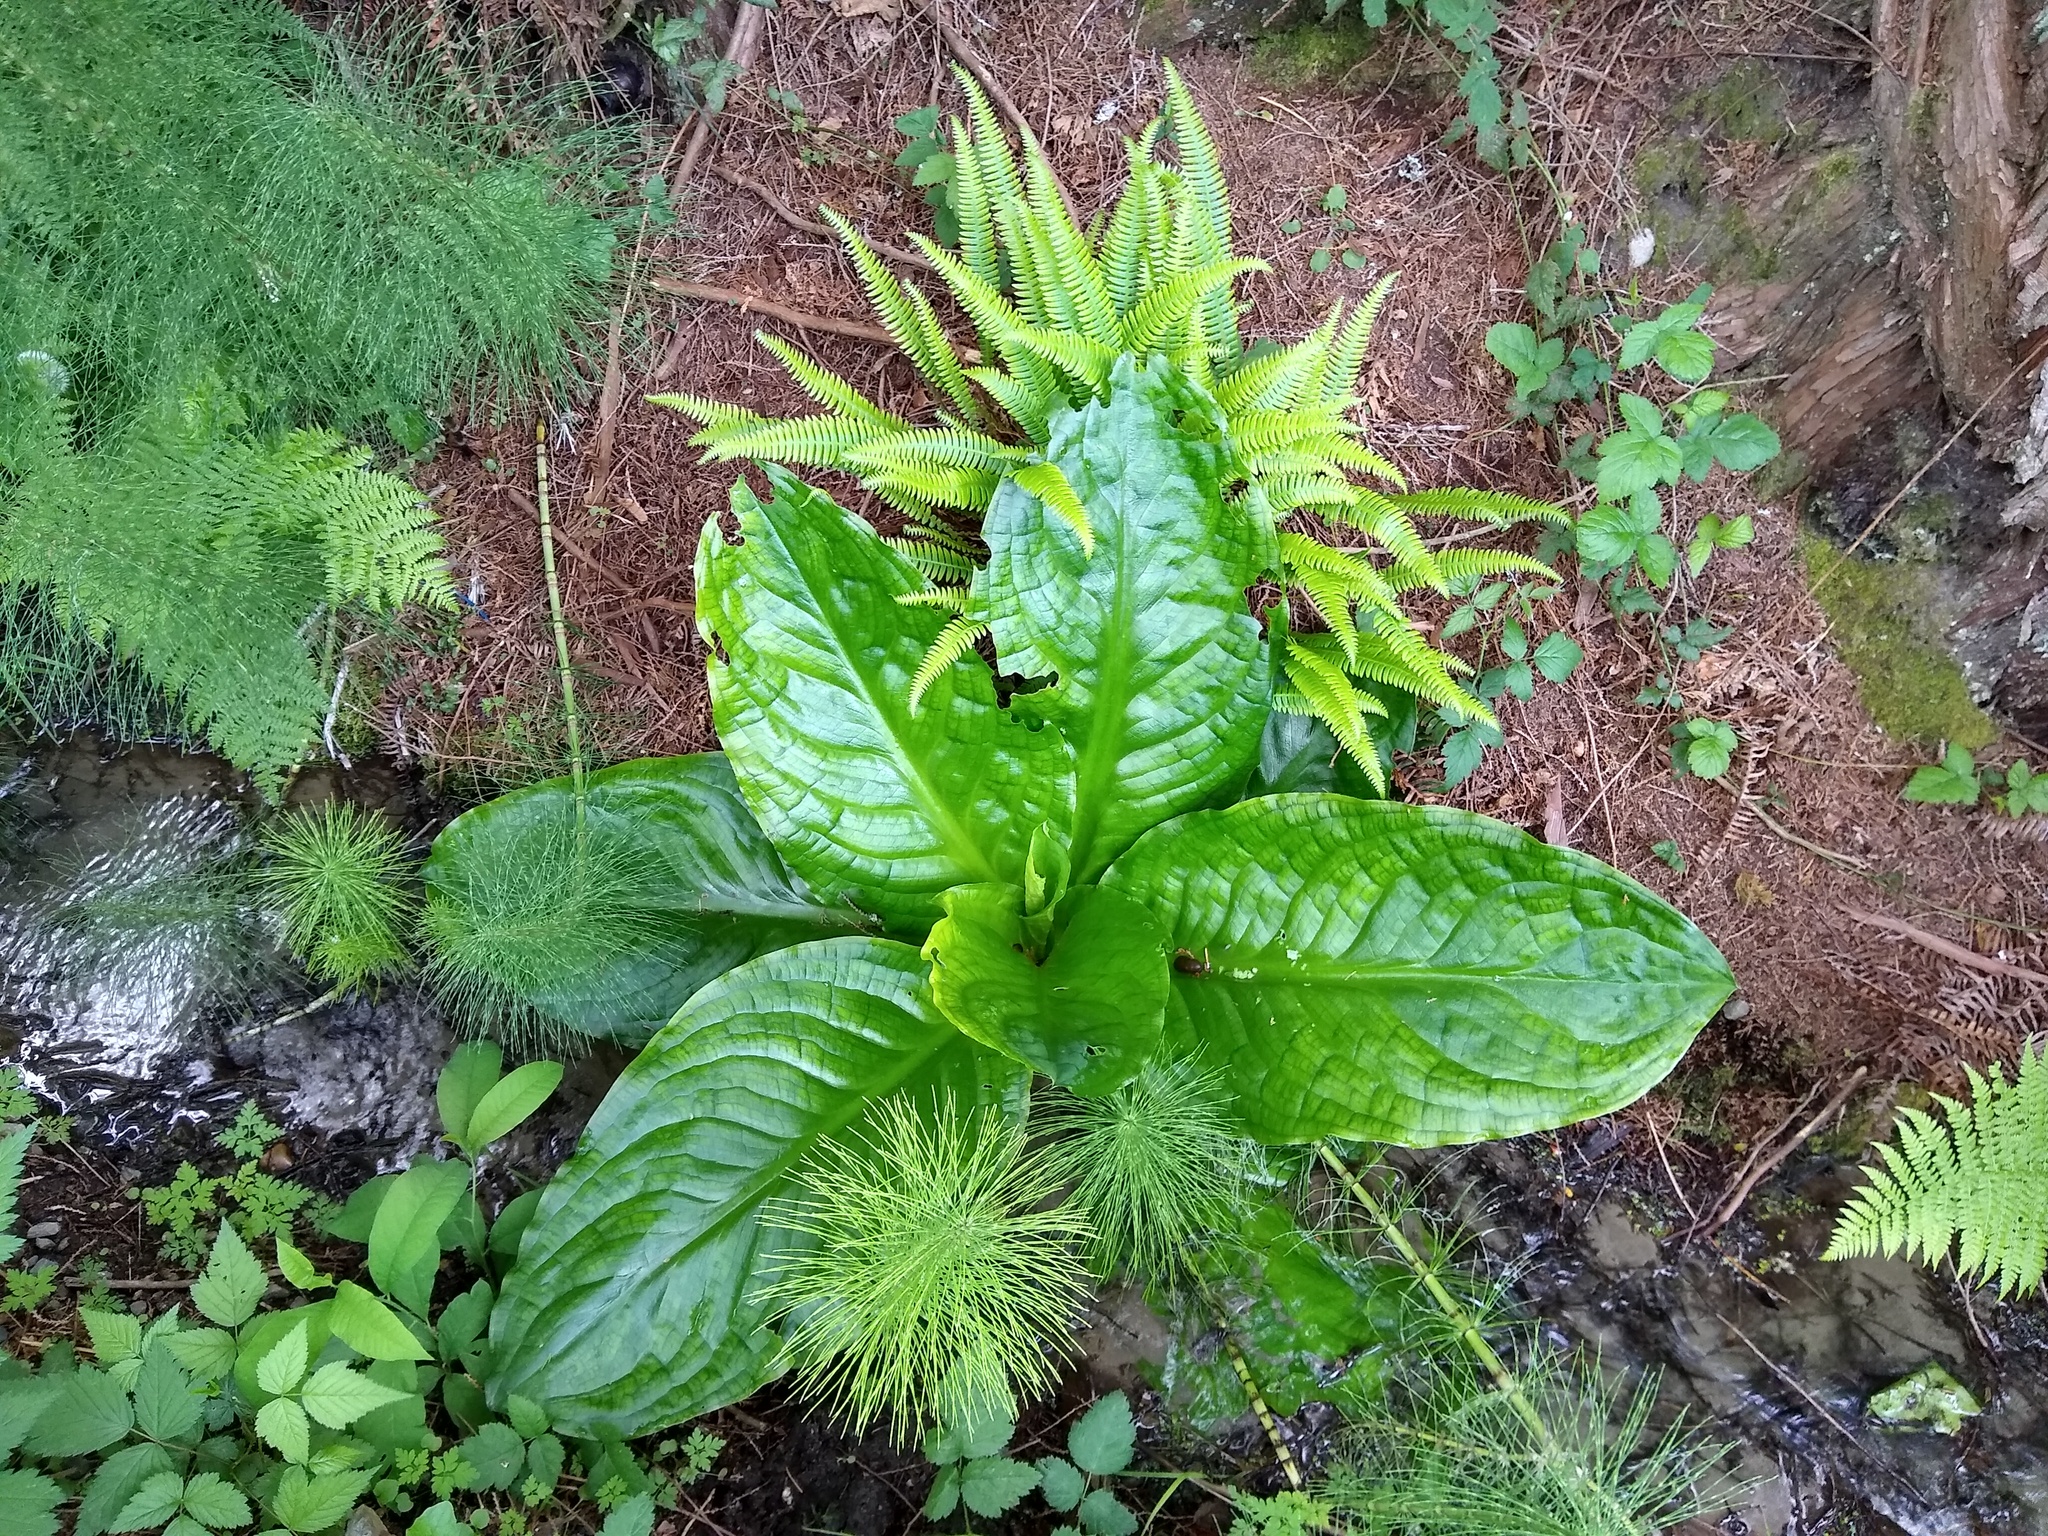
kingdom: Plantae
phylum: Tracheophyta
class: Liliopsida
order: Alismatales
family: Araceae
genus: Lysichiton
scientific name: Lysichiton americanus
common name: American skunk cabbage
